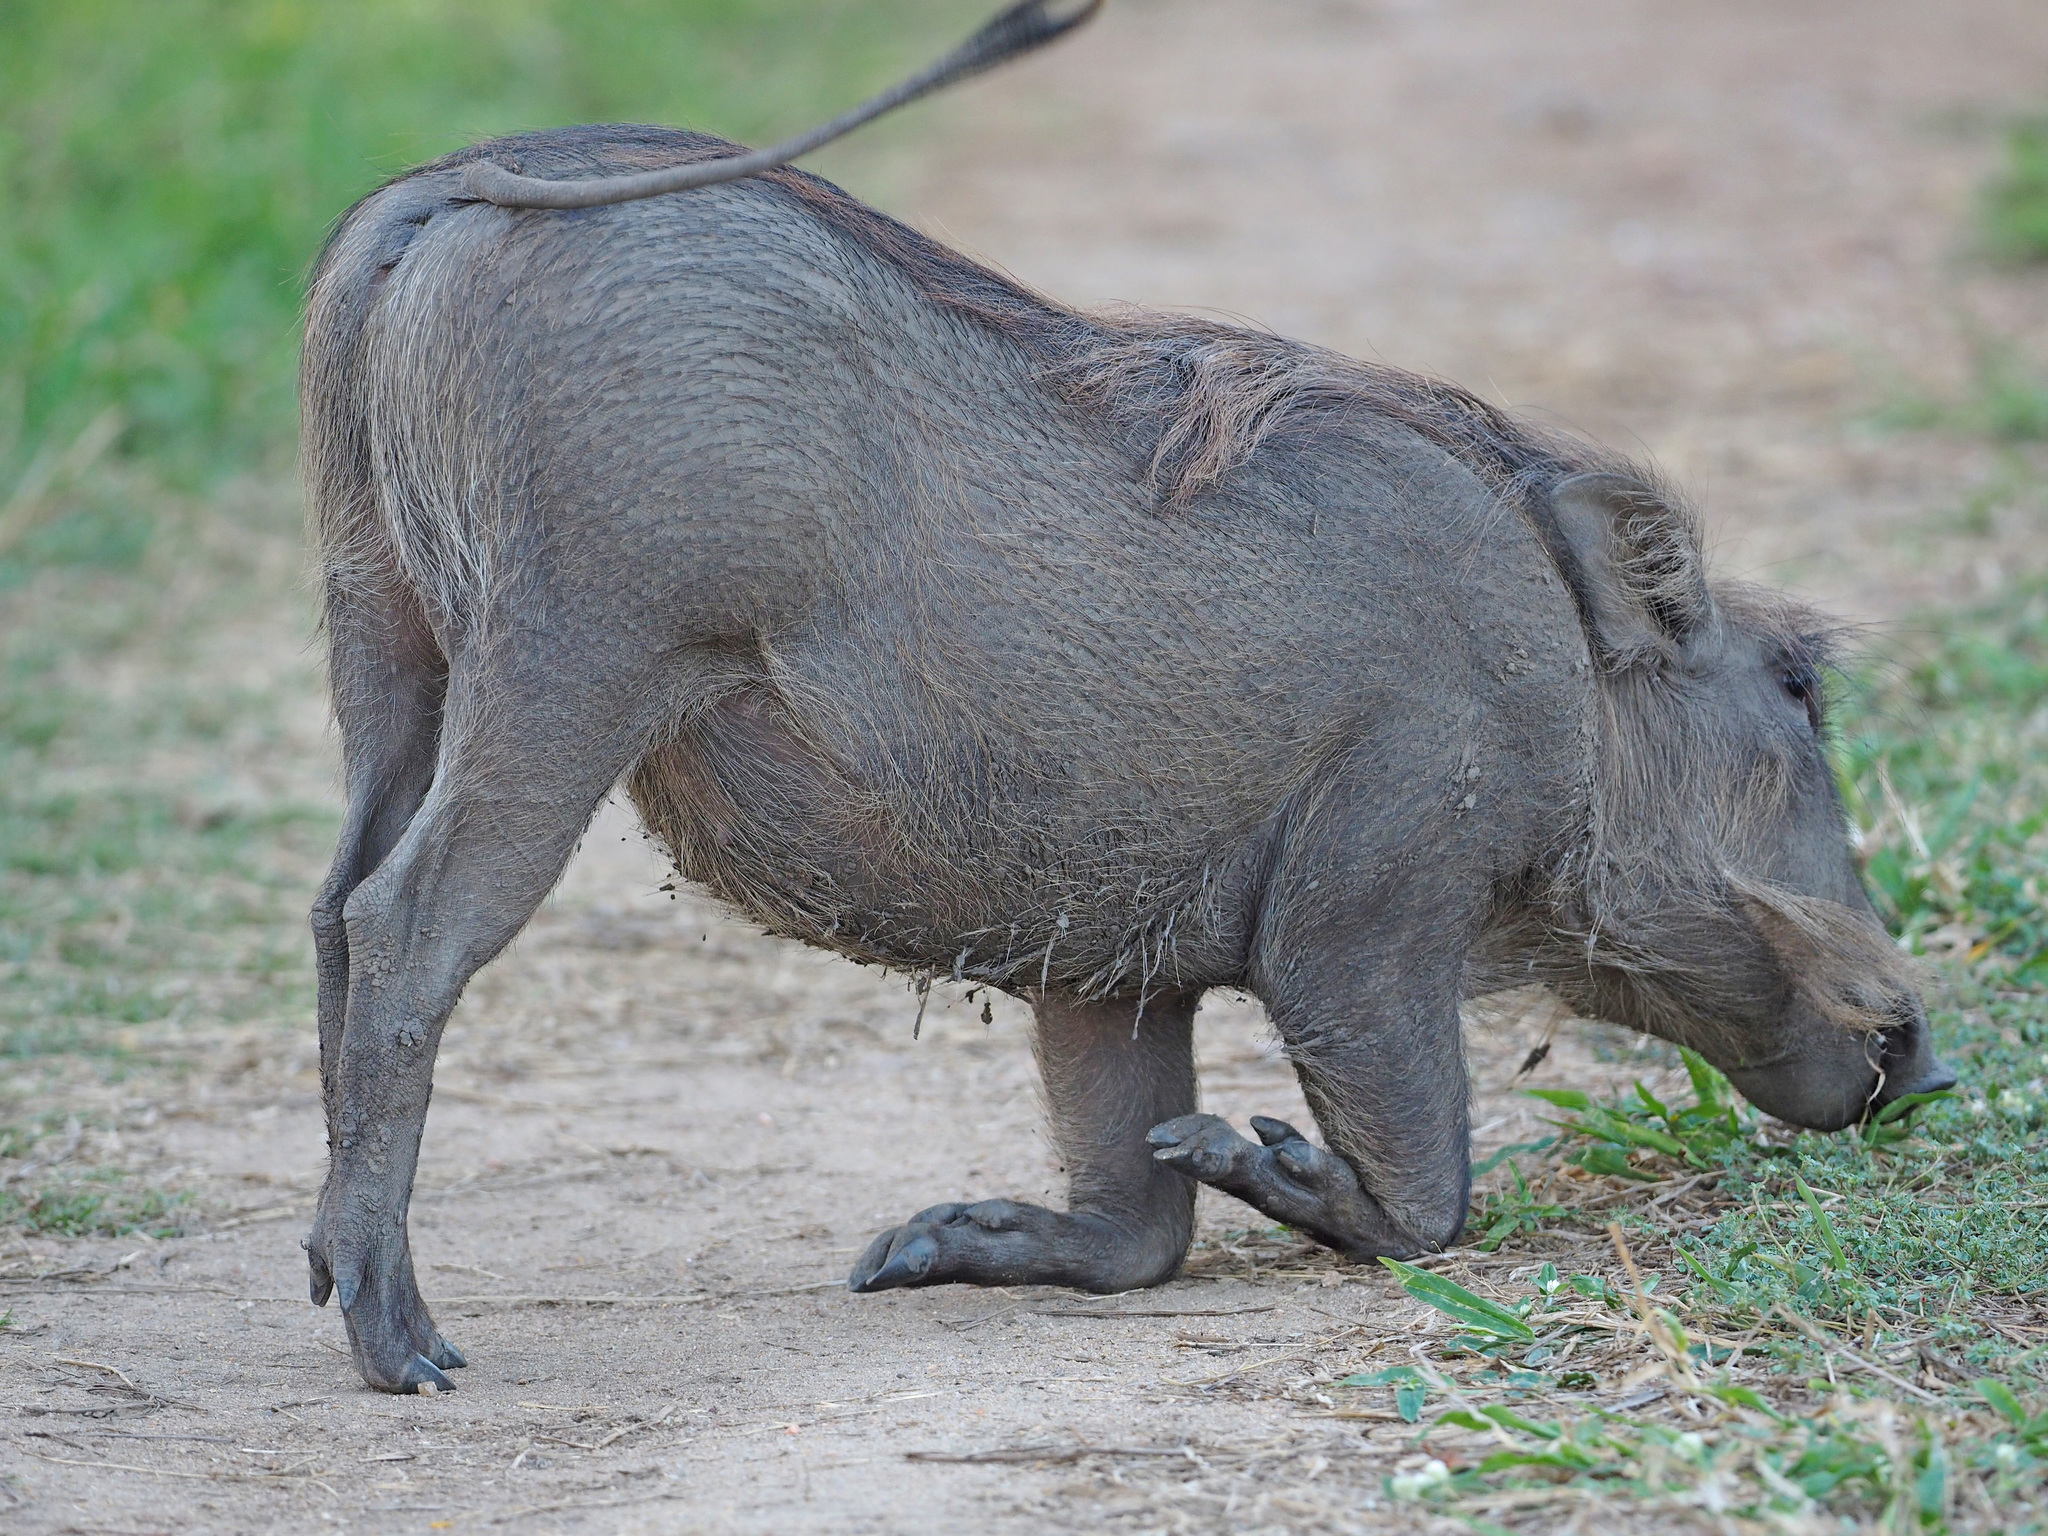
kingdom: Animalia
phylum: Chordata
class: Mammalia
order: Artiodactyla
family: Suidae
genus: Phacochoerus
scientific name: Phacochoerus africanus
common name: Common warthog
